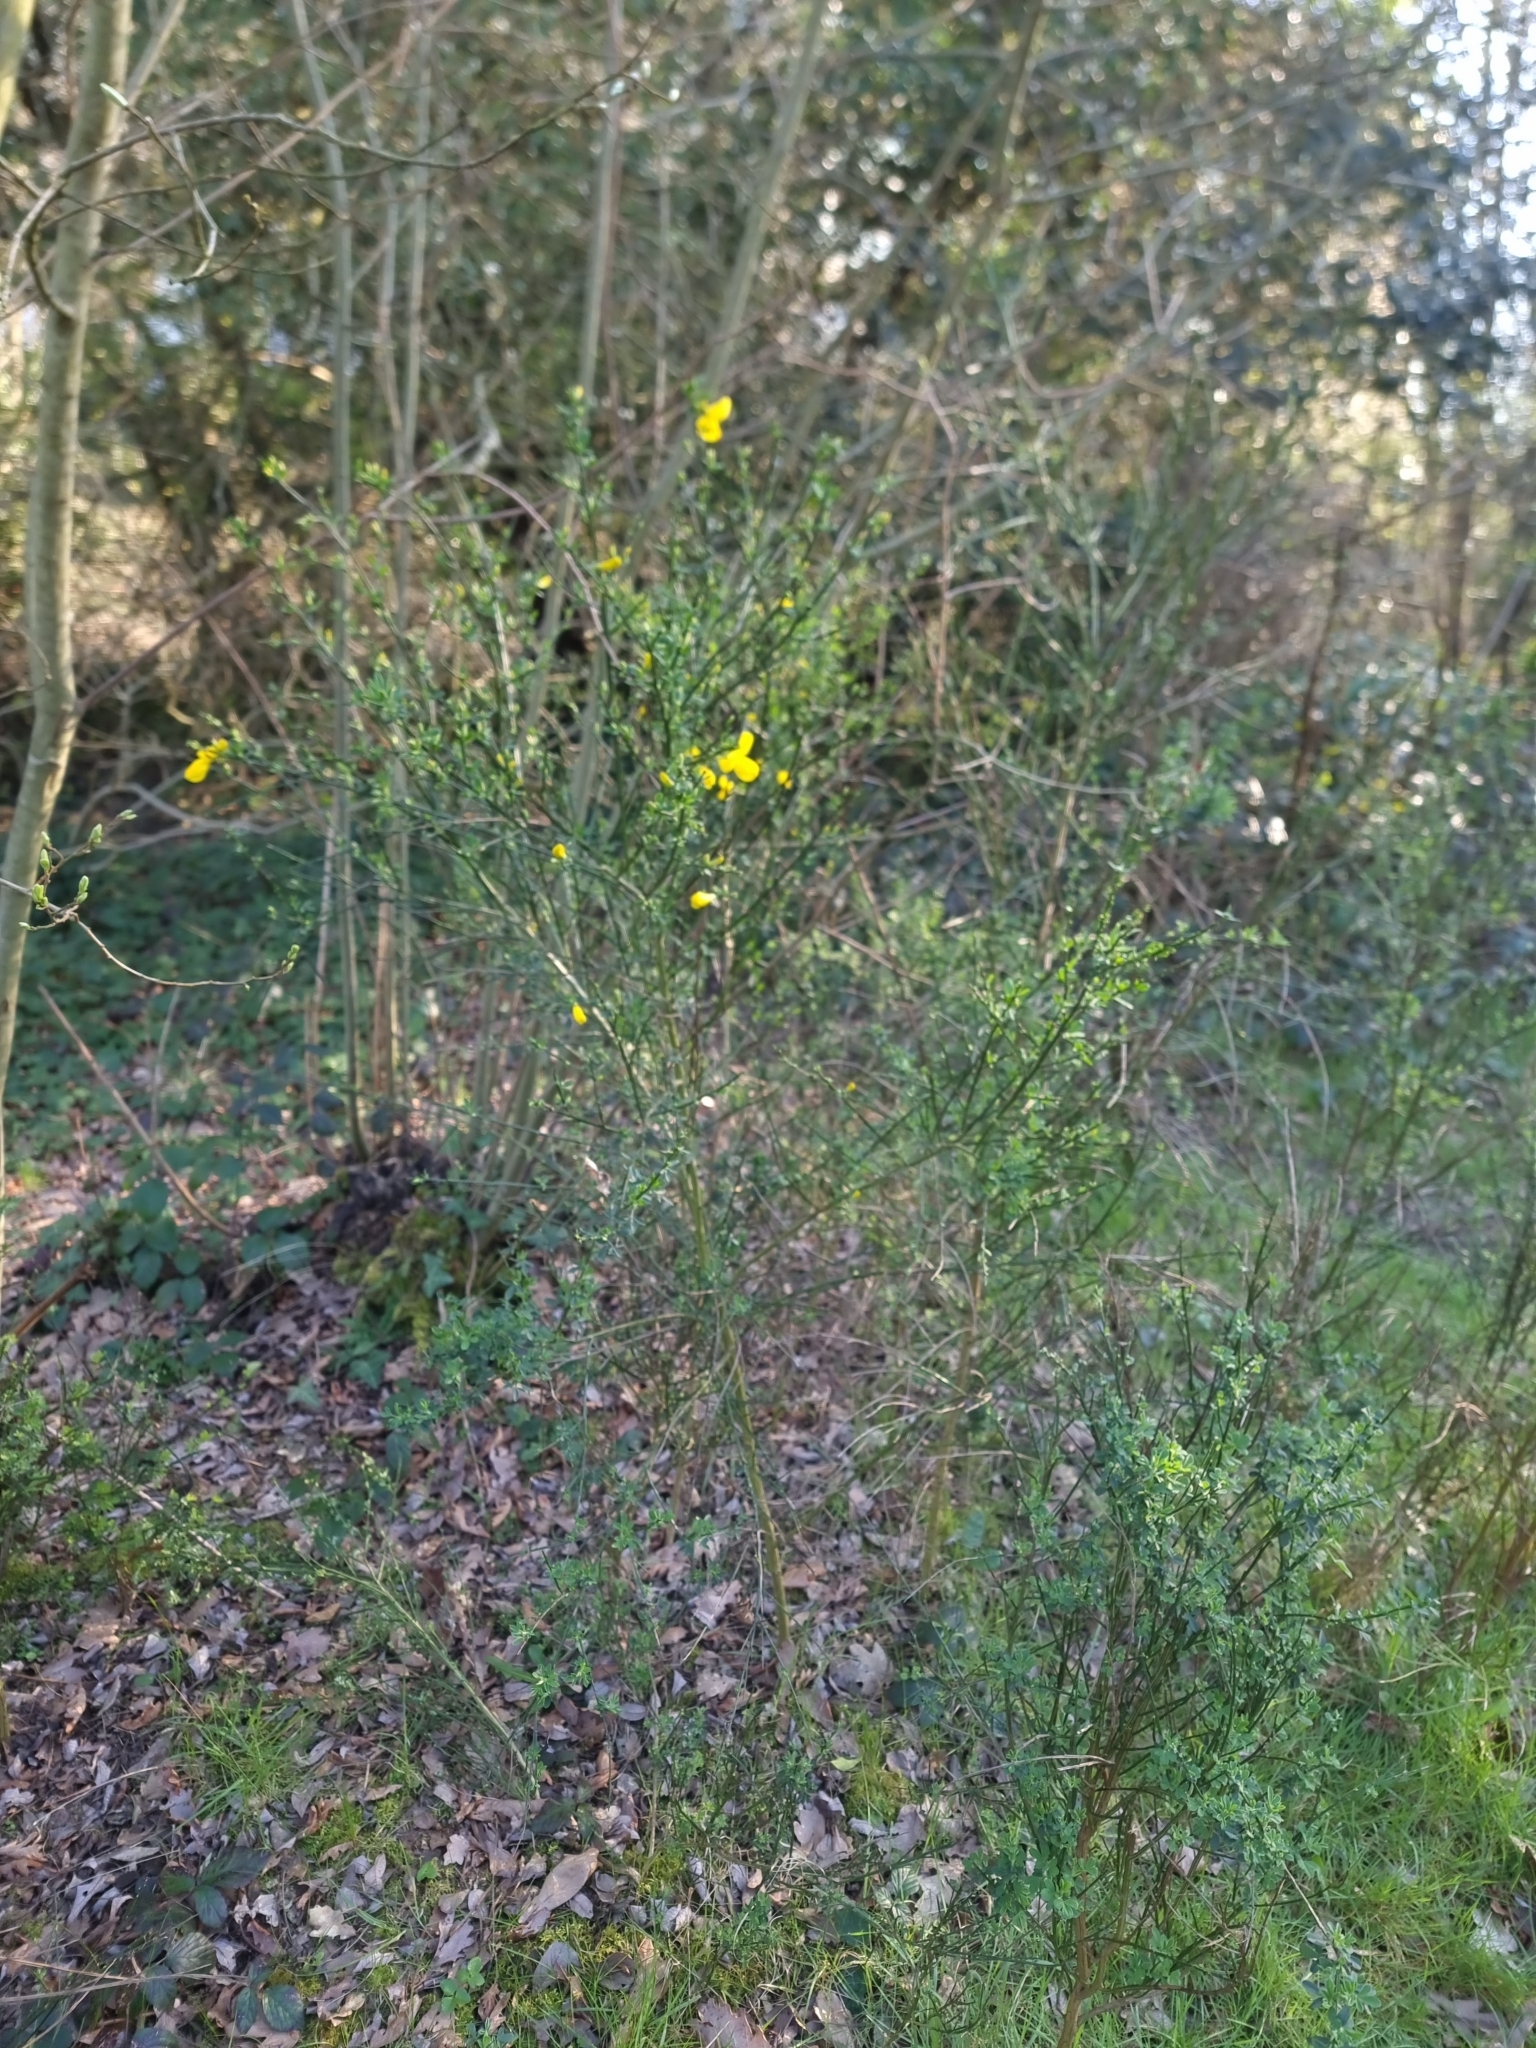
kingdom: Plantae
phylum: Tracheophyta
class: Magnoliopsida
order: Fabales
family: Fabaceae
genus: Cytisus
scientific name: Cytisus scoparius
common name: Scotch broom
